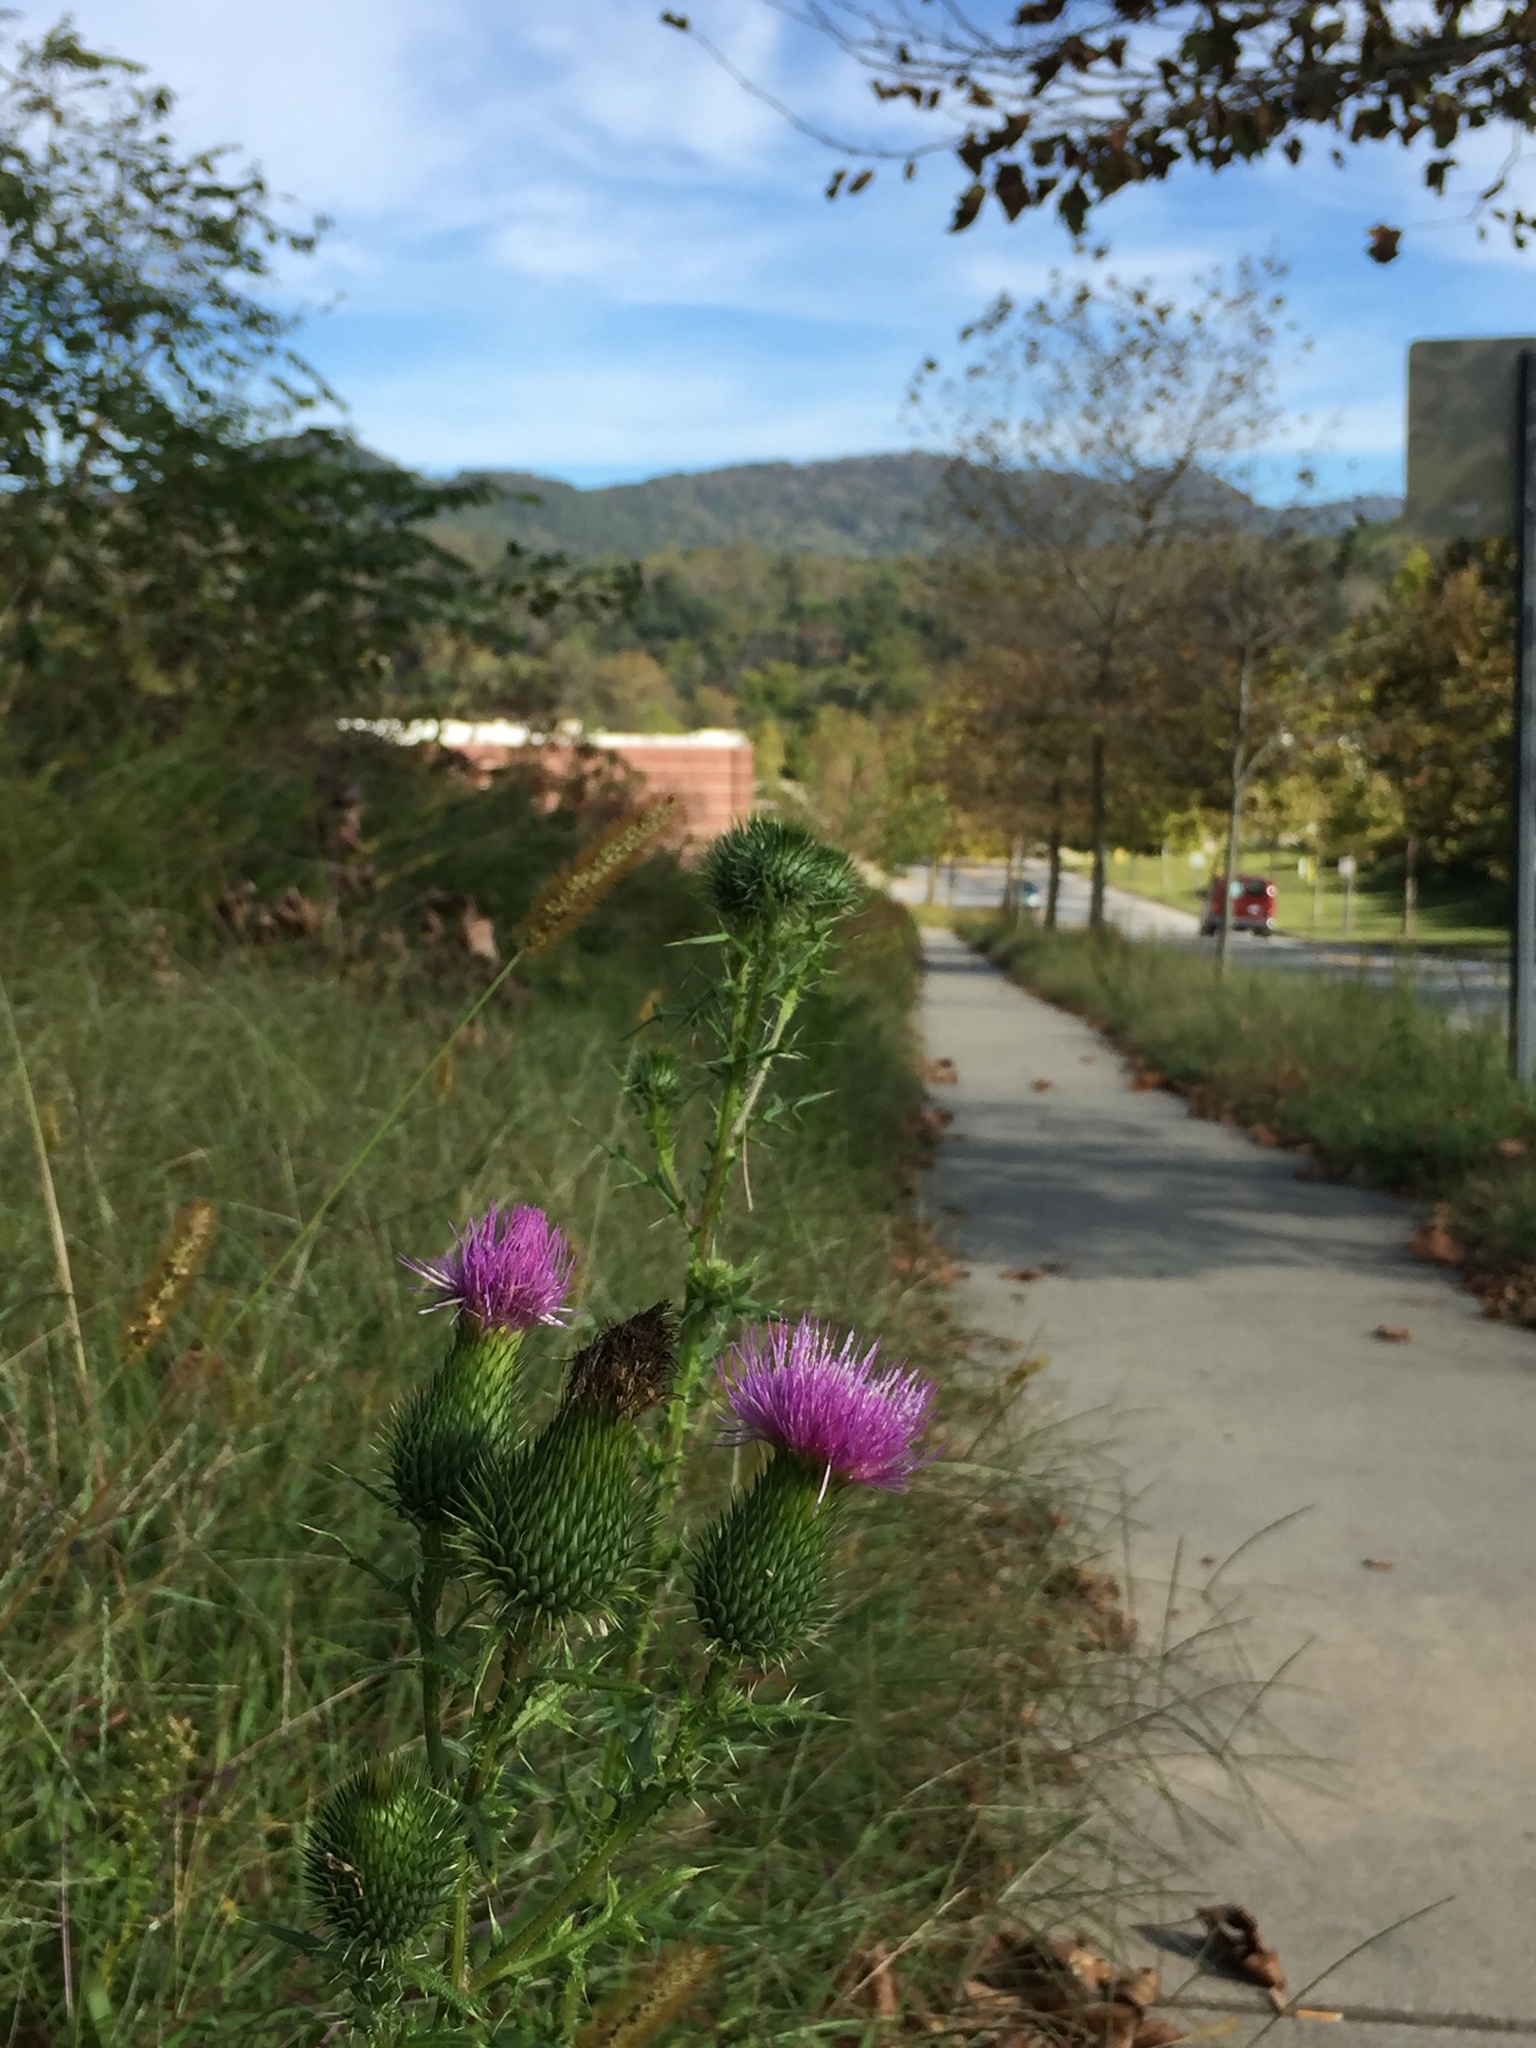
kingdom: Plantae
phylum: Tracheophyta
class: Magnoliopsida
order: Asterales
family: Asteraceae
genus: Cirsium
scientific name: Cirsium vulgare
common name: Bull thistle
